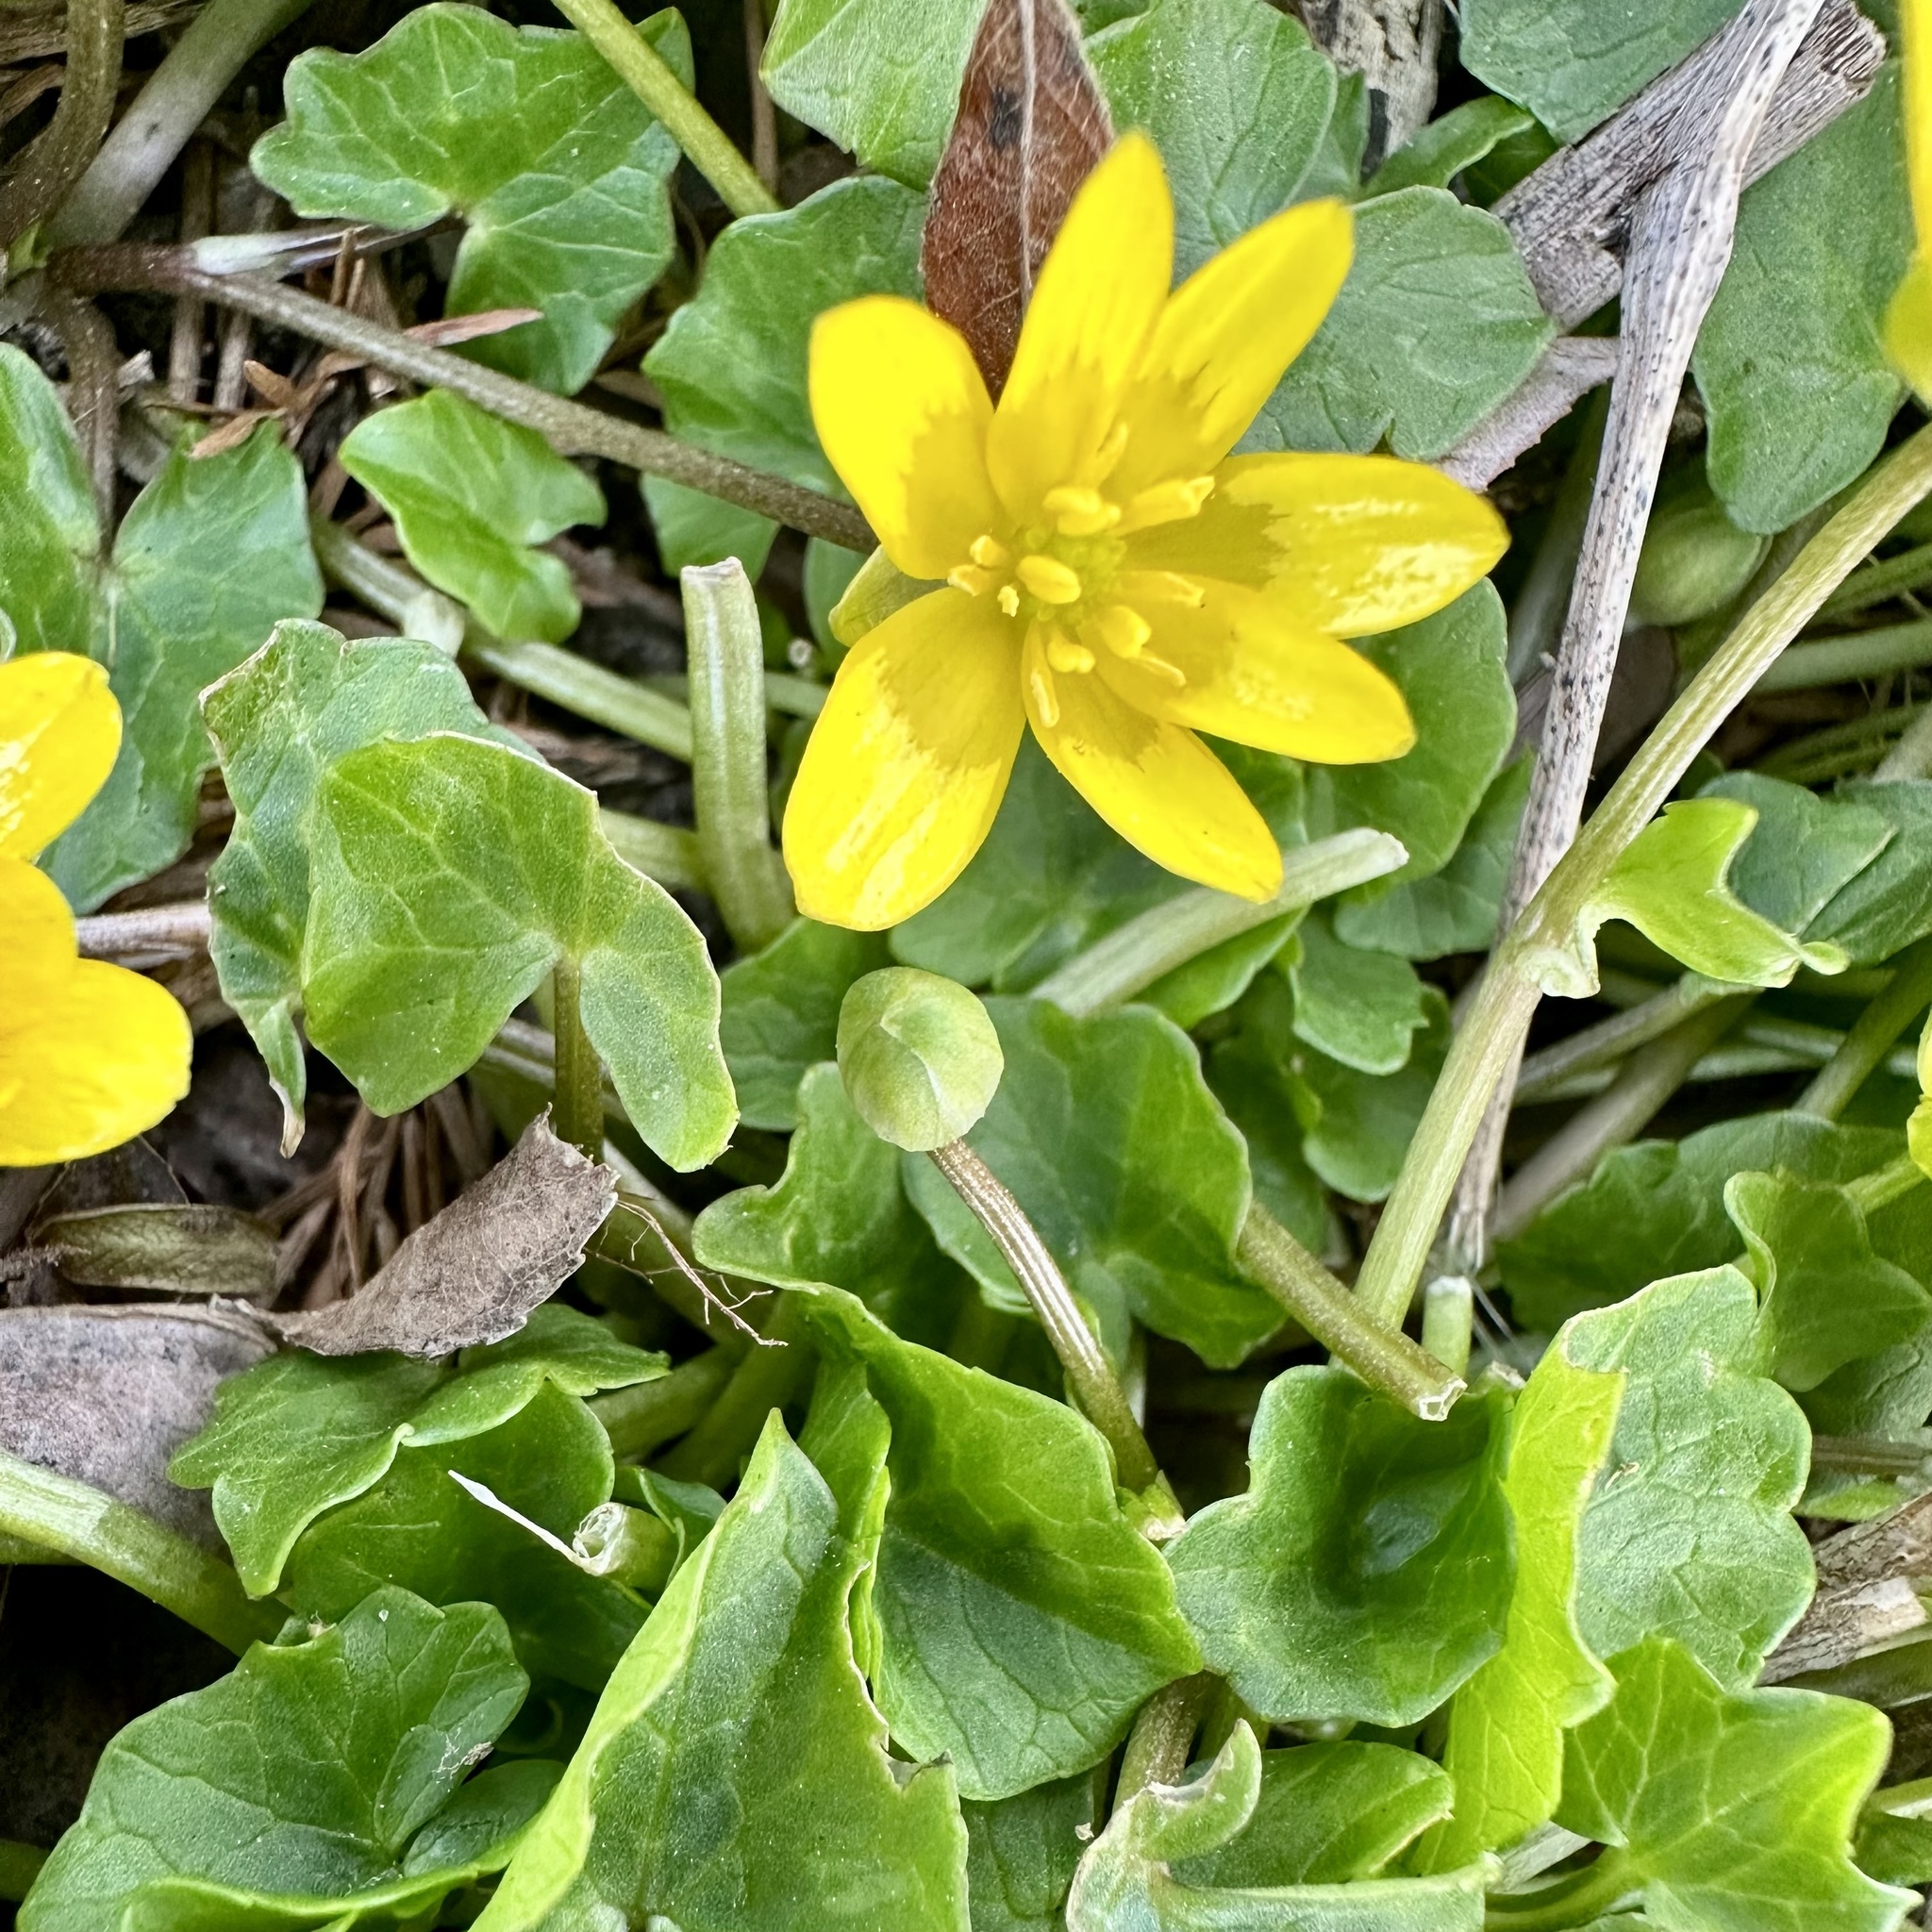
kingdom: Plantae
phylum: Tracheophyta
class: Magnoliopsida
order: Ranunculales
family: Ranunculaceae
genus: Ficaria
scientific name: Ficaria verna
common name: Lesser celandine
